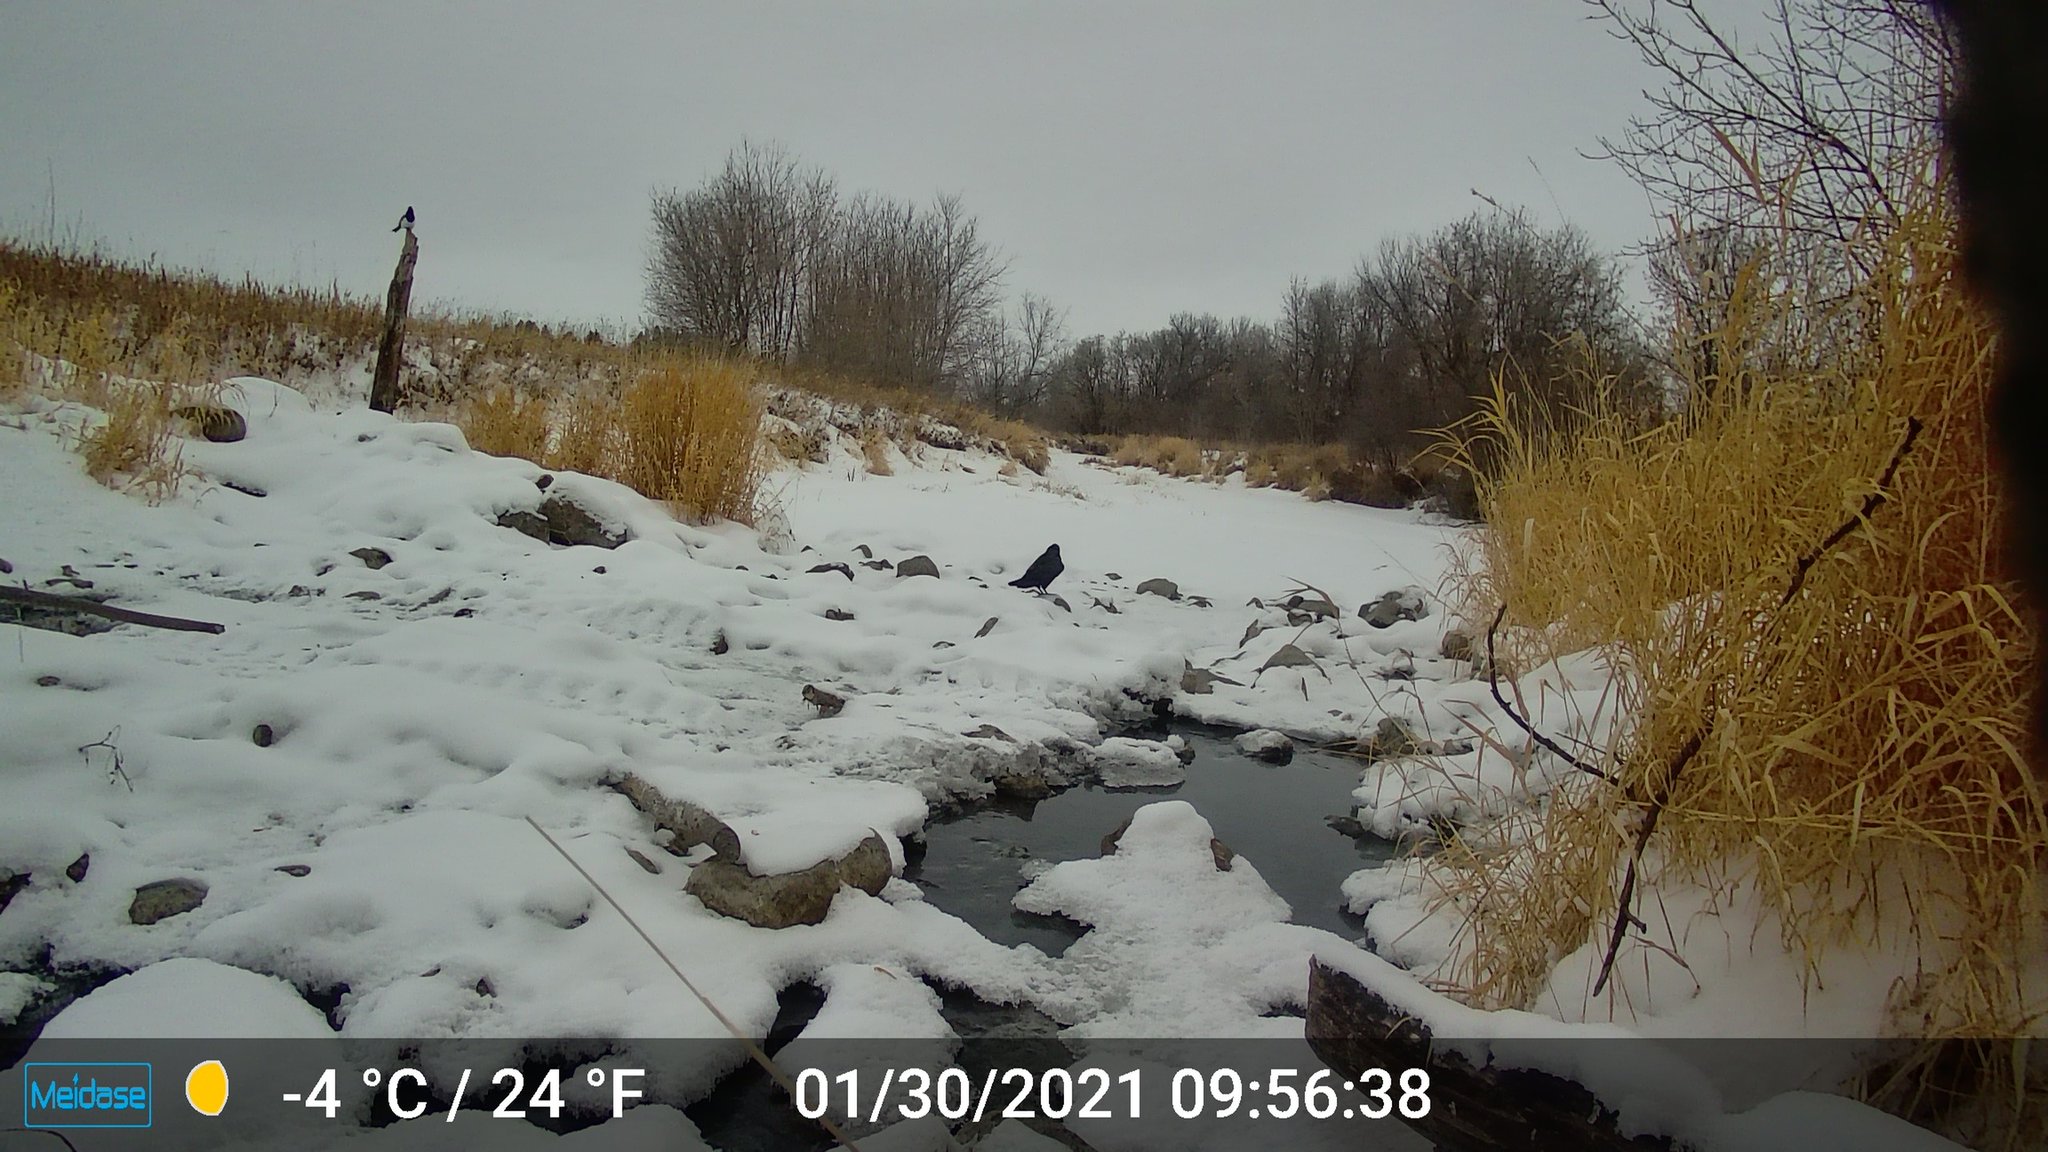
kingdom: Animalia
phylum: Chordata
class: Aves
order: Passeriformes
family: Corvidae
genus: Pica
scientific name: Pica hudsonia
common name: Black-billed magpie
